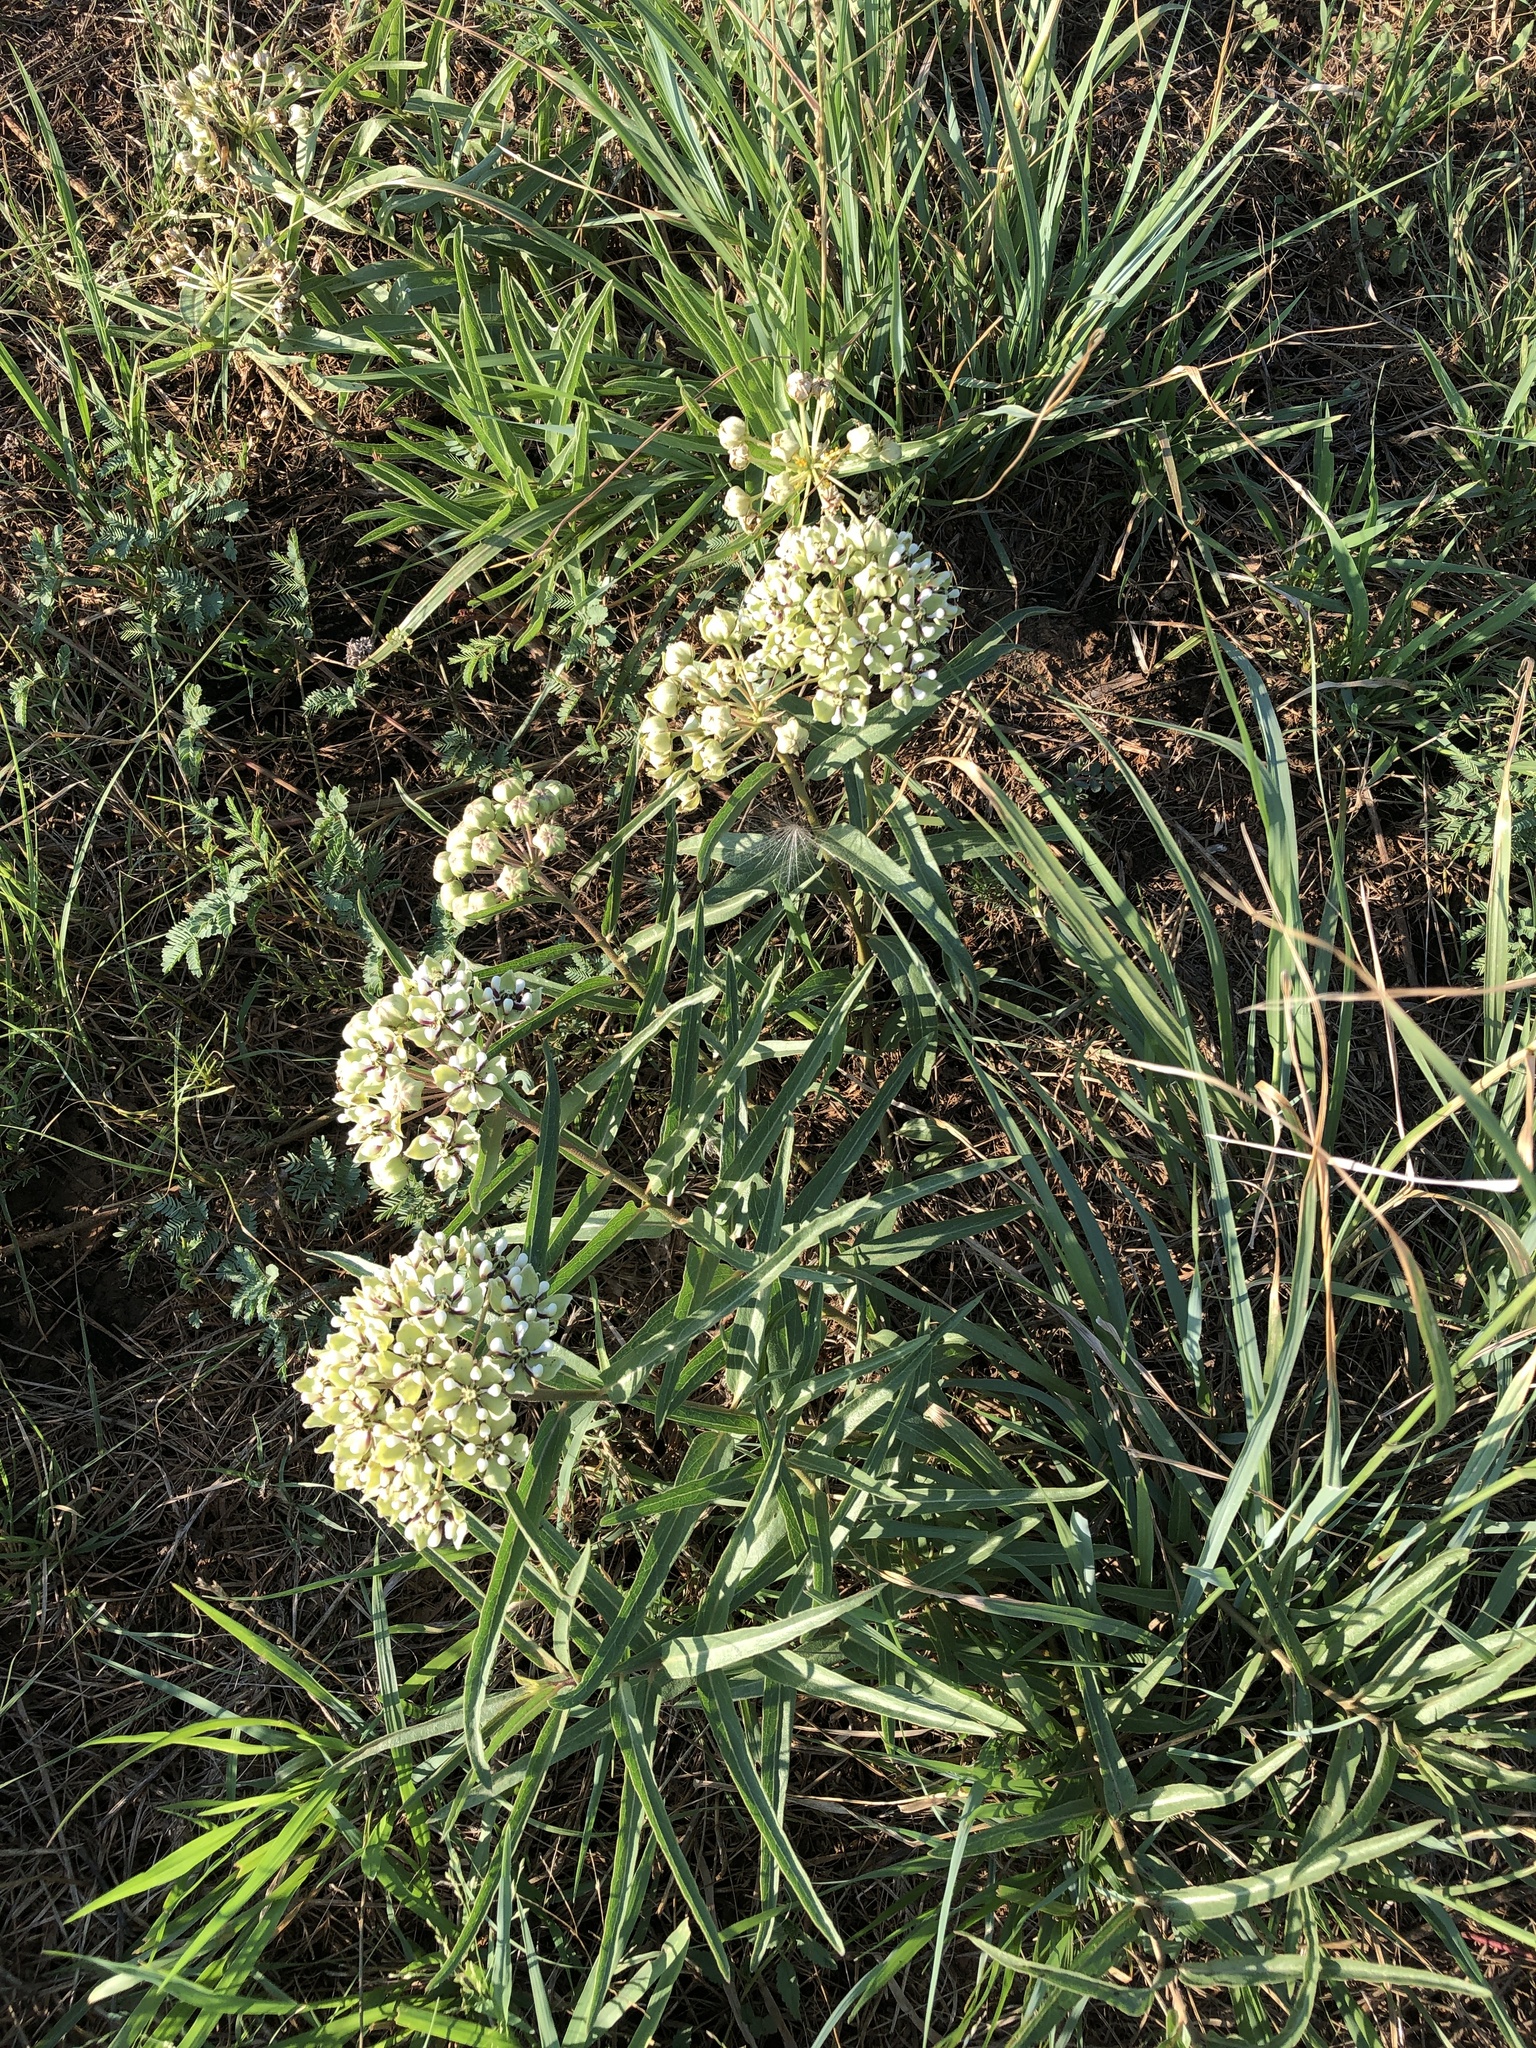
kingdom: Plantae
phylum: Tracheophyta
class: Magnoliopsida
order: Gentianales
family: Apocynaceae
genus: Asclepias
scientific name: Asclepias asperula
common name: Antelope horns
